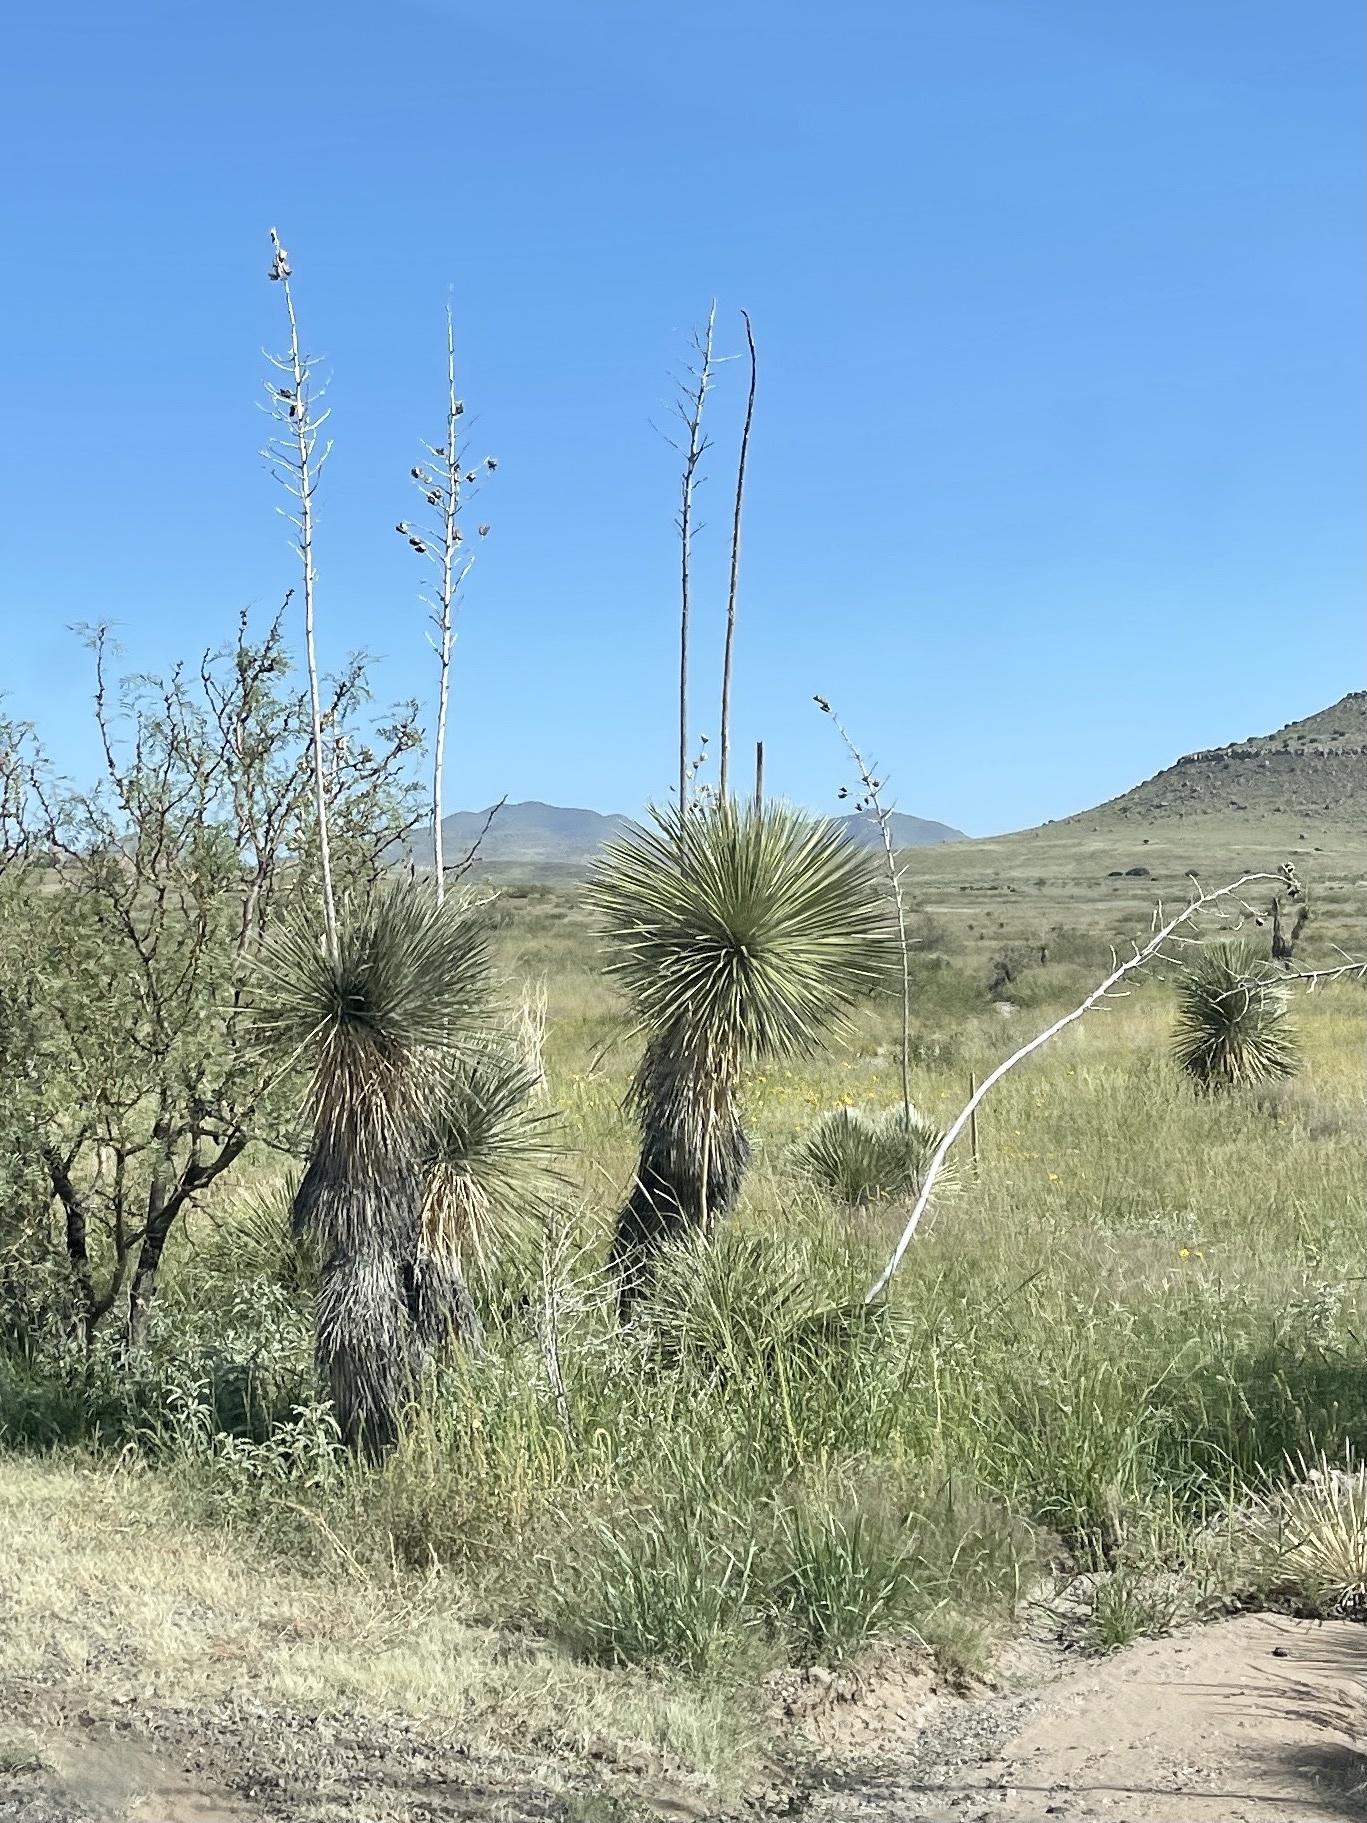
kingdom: Plantae
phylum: Tracheophyta
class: Liliopsida
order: Asparagales
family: Asparagaceae
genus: Yucca
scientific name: Yucca elata
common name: Palmella
